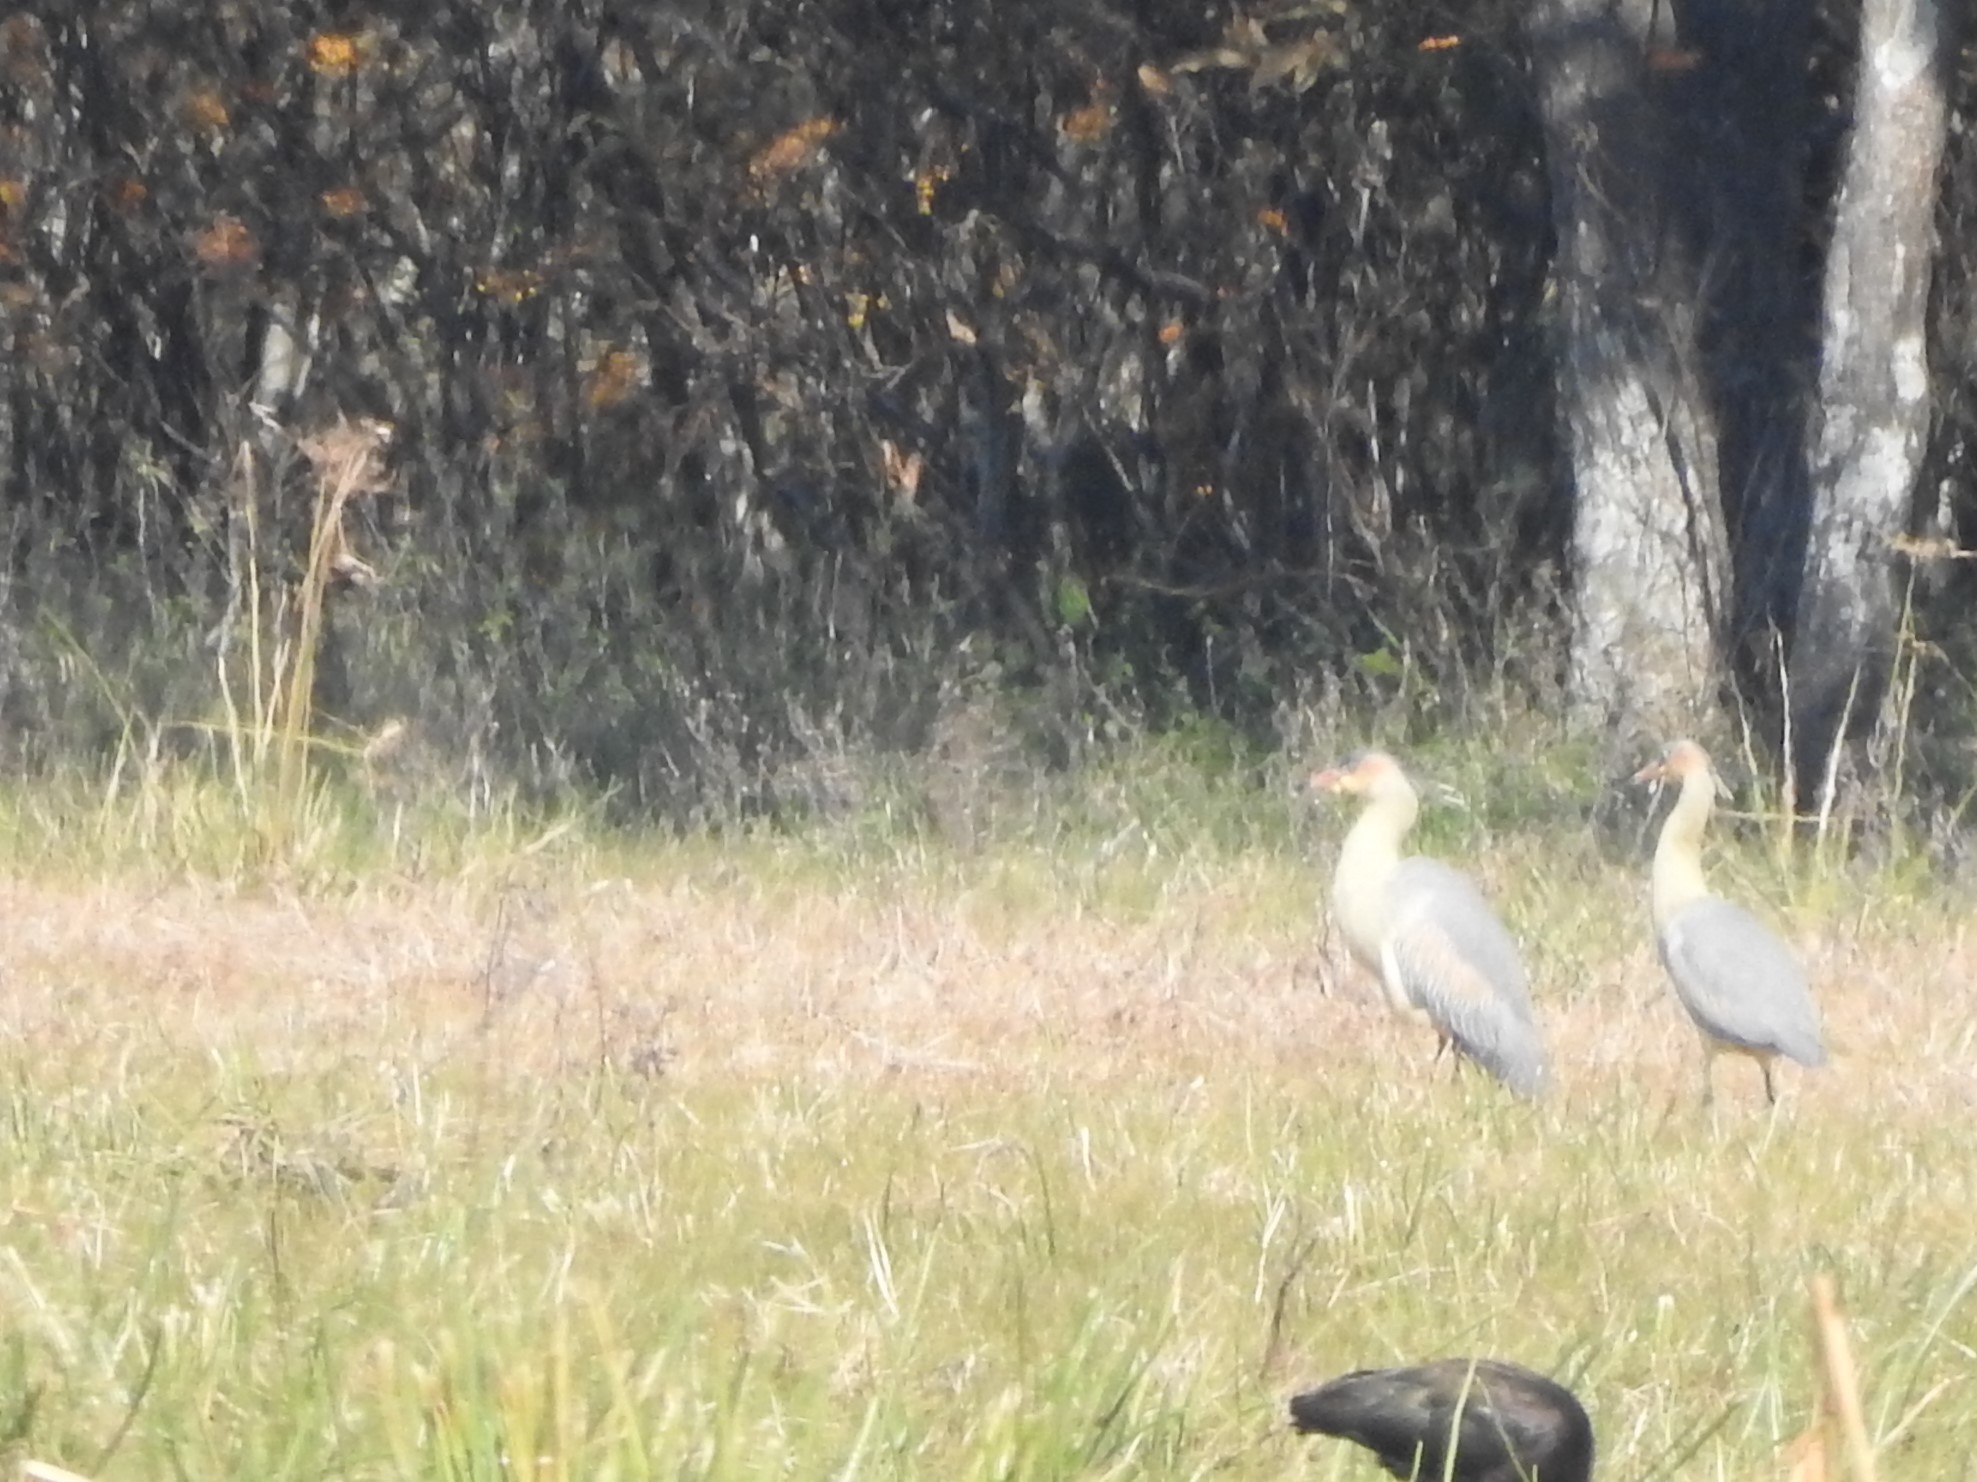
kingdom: Animalia
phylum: Chordata
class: Aves
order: Pelecaniformes
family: Ardeidae
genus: Syrigma
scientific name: Syrigma sibilatrix
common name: Whistling heron
